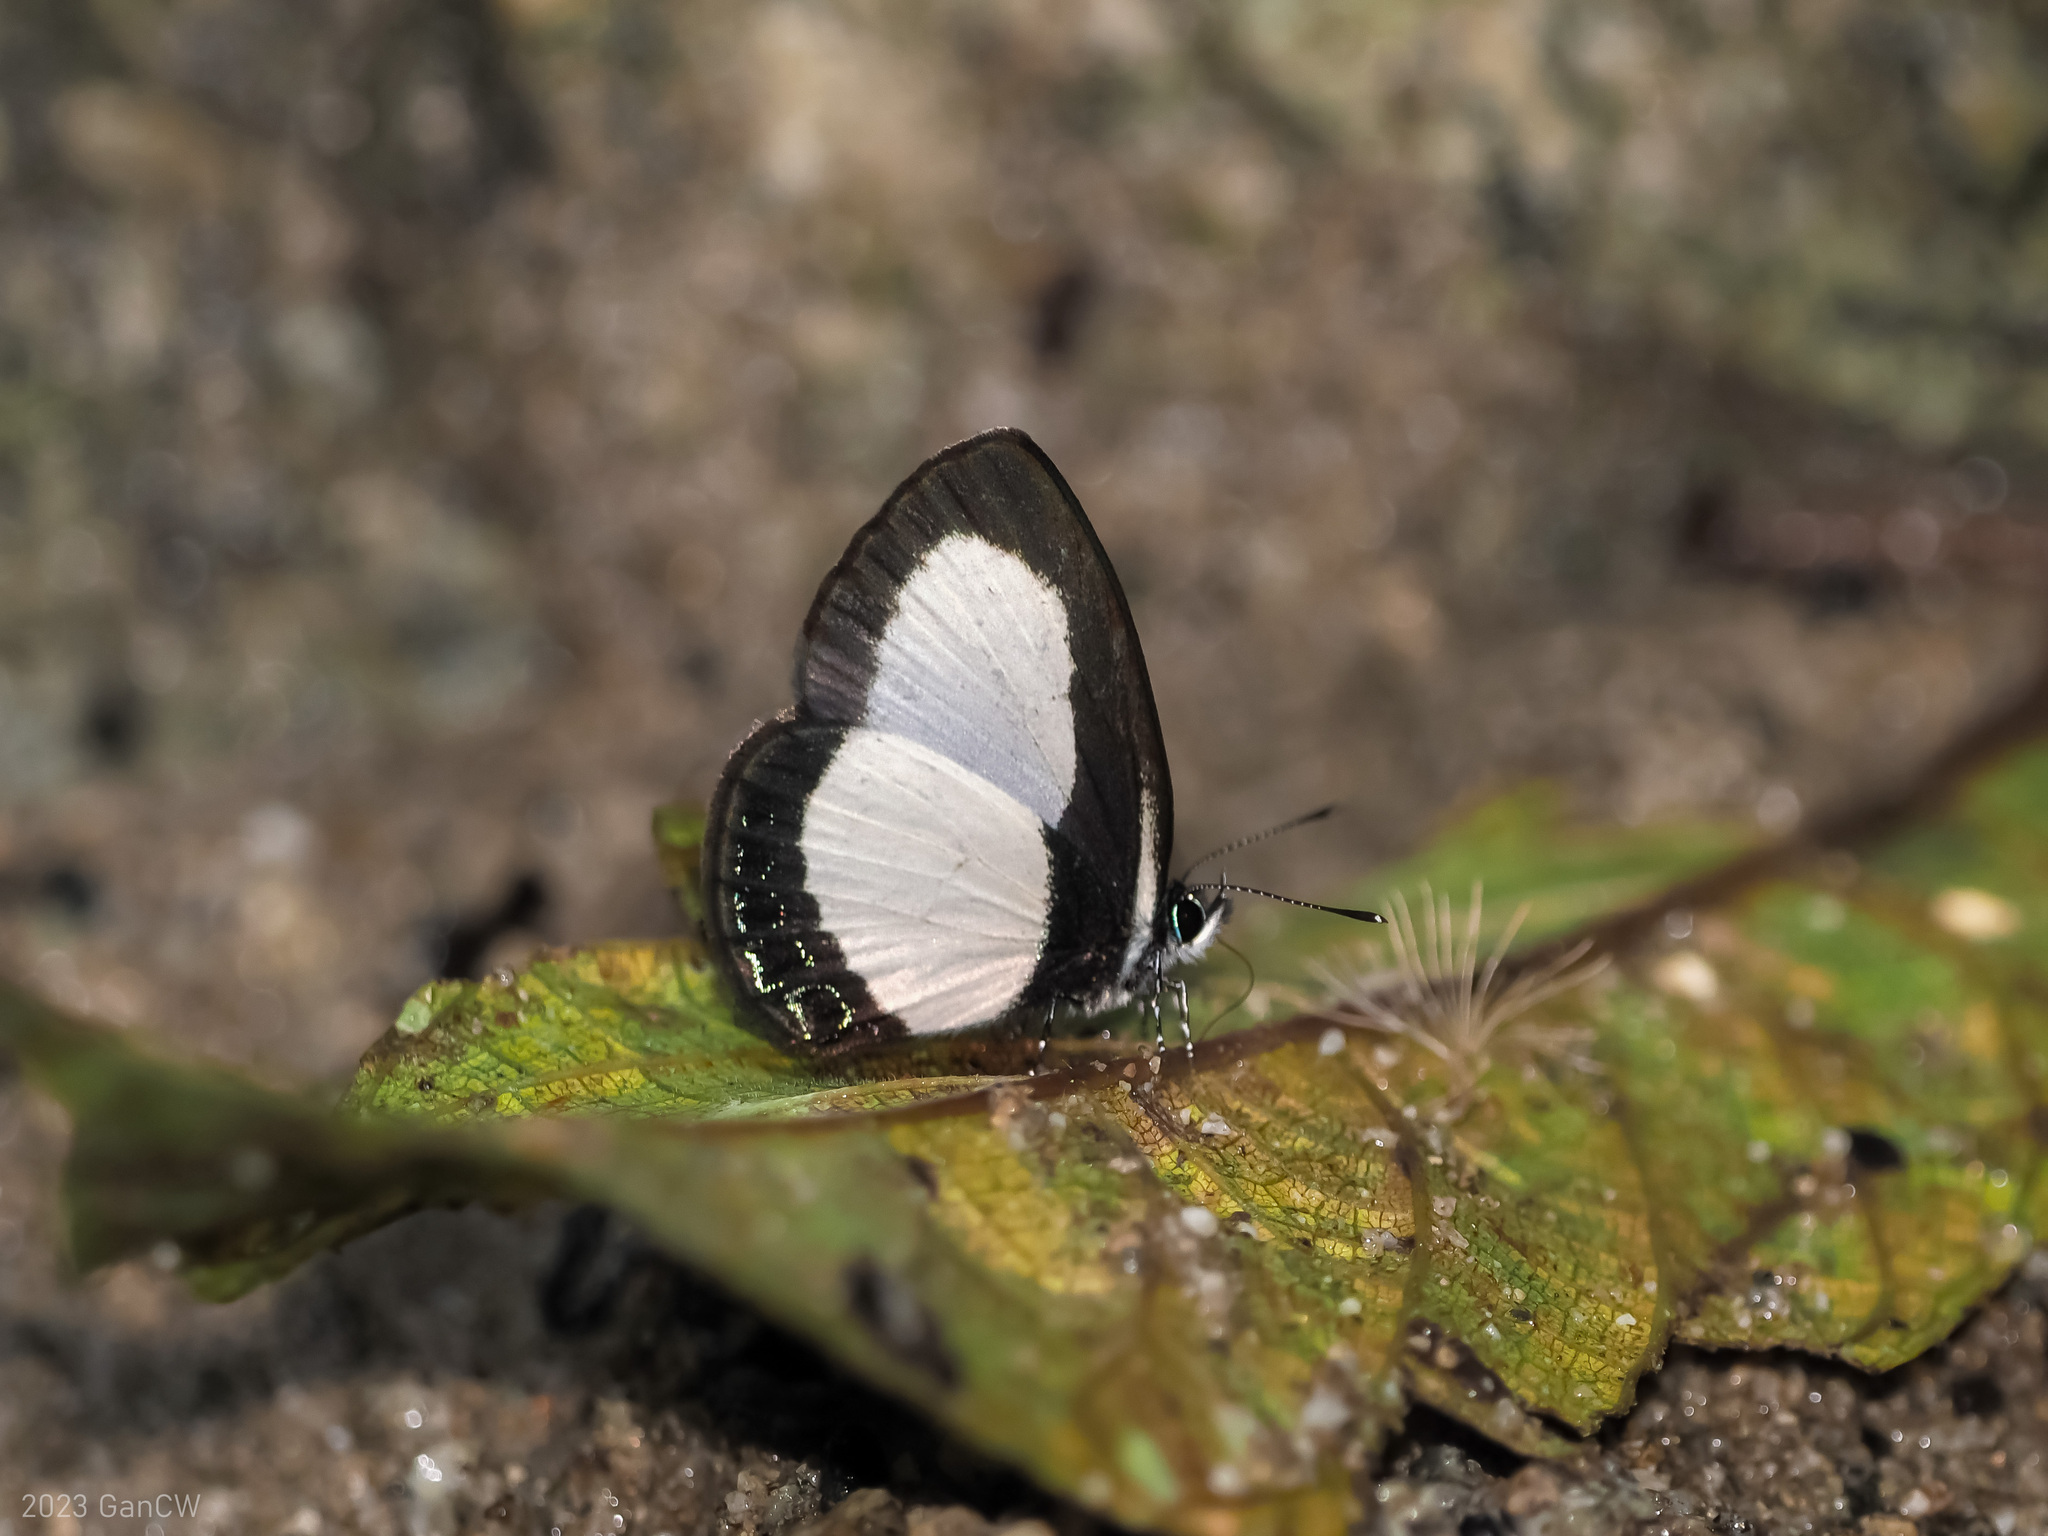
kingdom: Animalia
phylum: Arthropoda
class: Insecta
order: Lepidoptera
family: Lycaenidae
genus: Psychonotis
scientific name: Psychonotis
